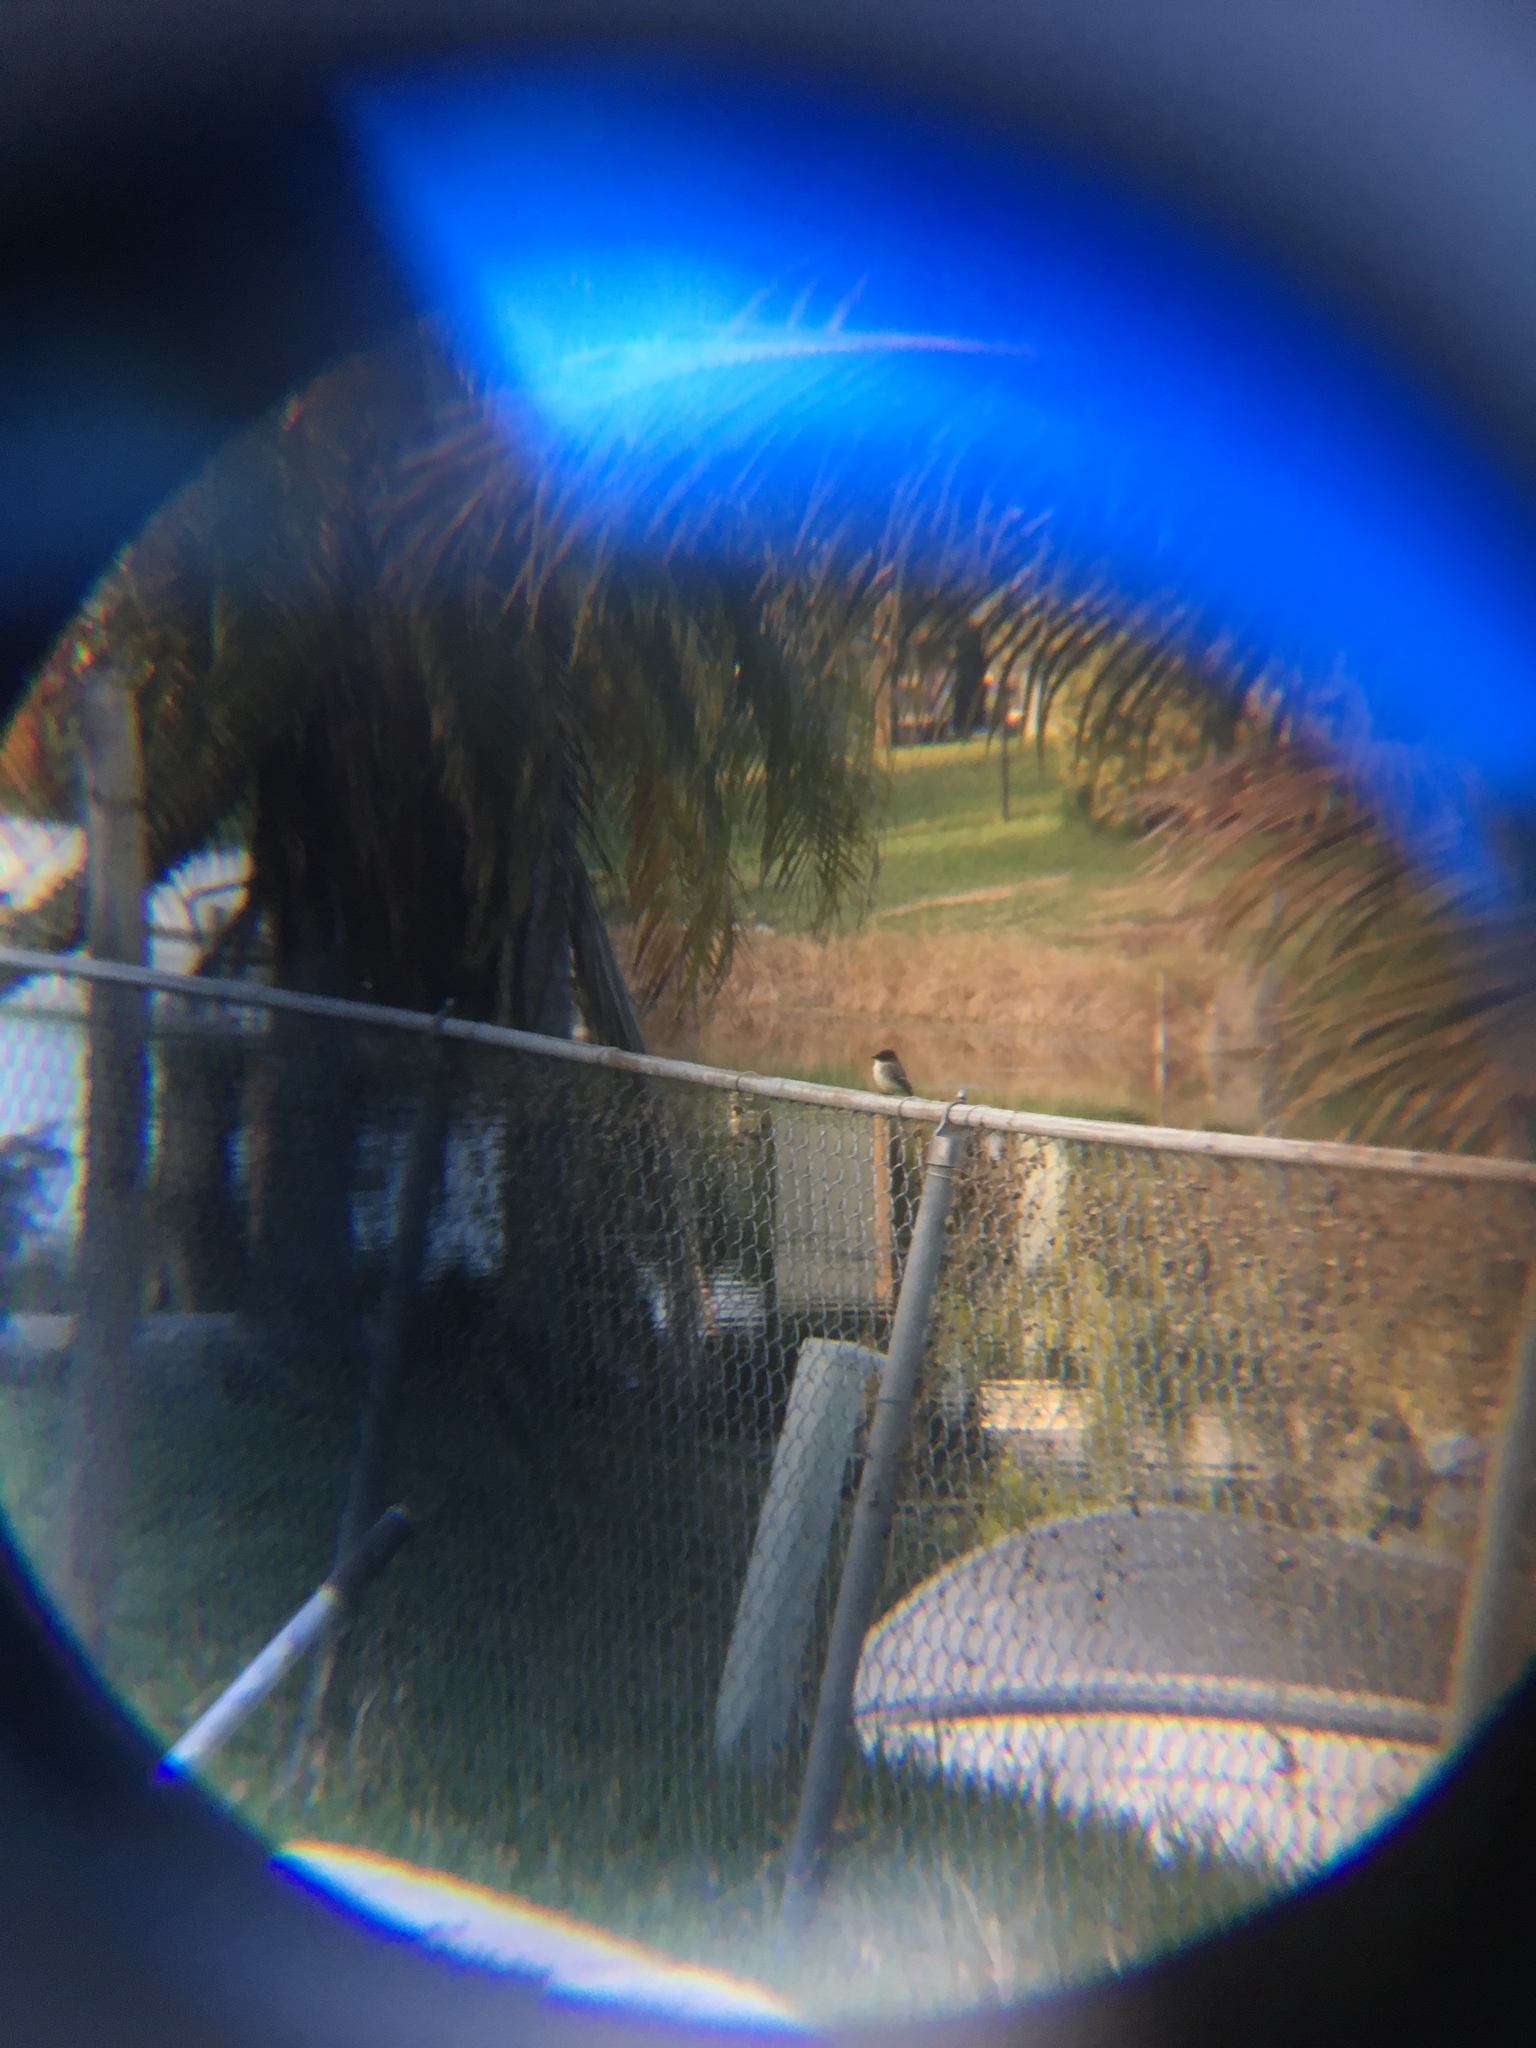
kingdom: Animalia
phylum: Chordata
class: Aves
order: Passeriformes
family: Tyrannidae
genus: Sayornis
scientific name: Sayornis phoebe
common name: Eastern phoebe
